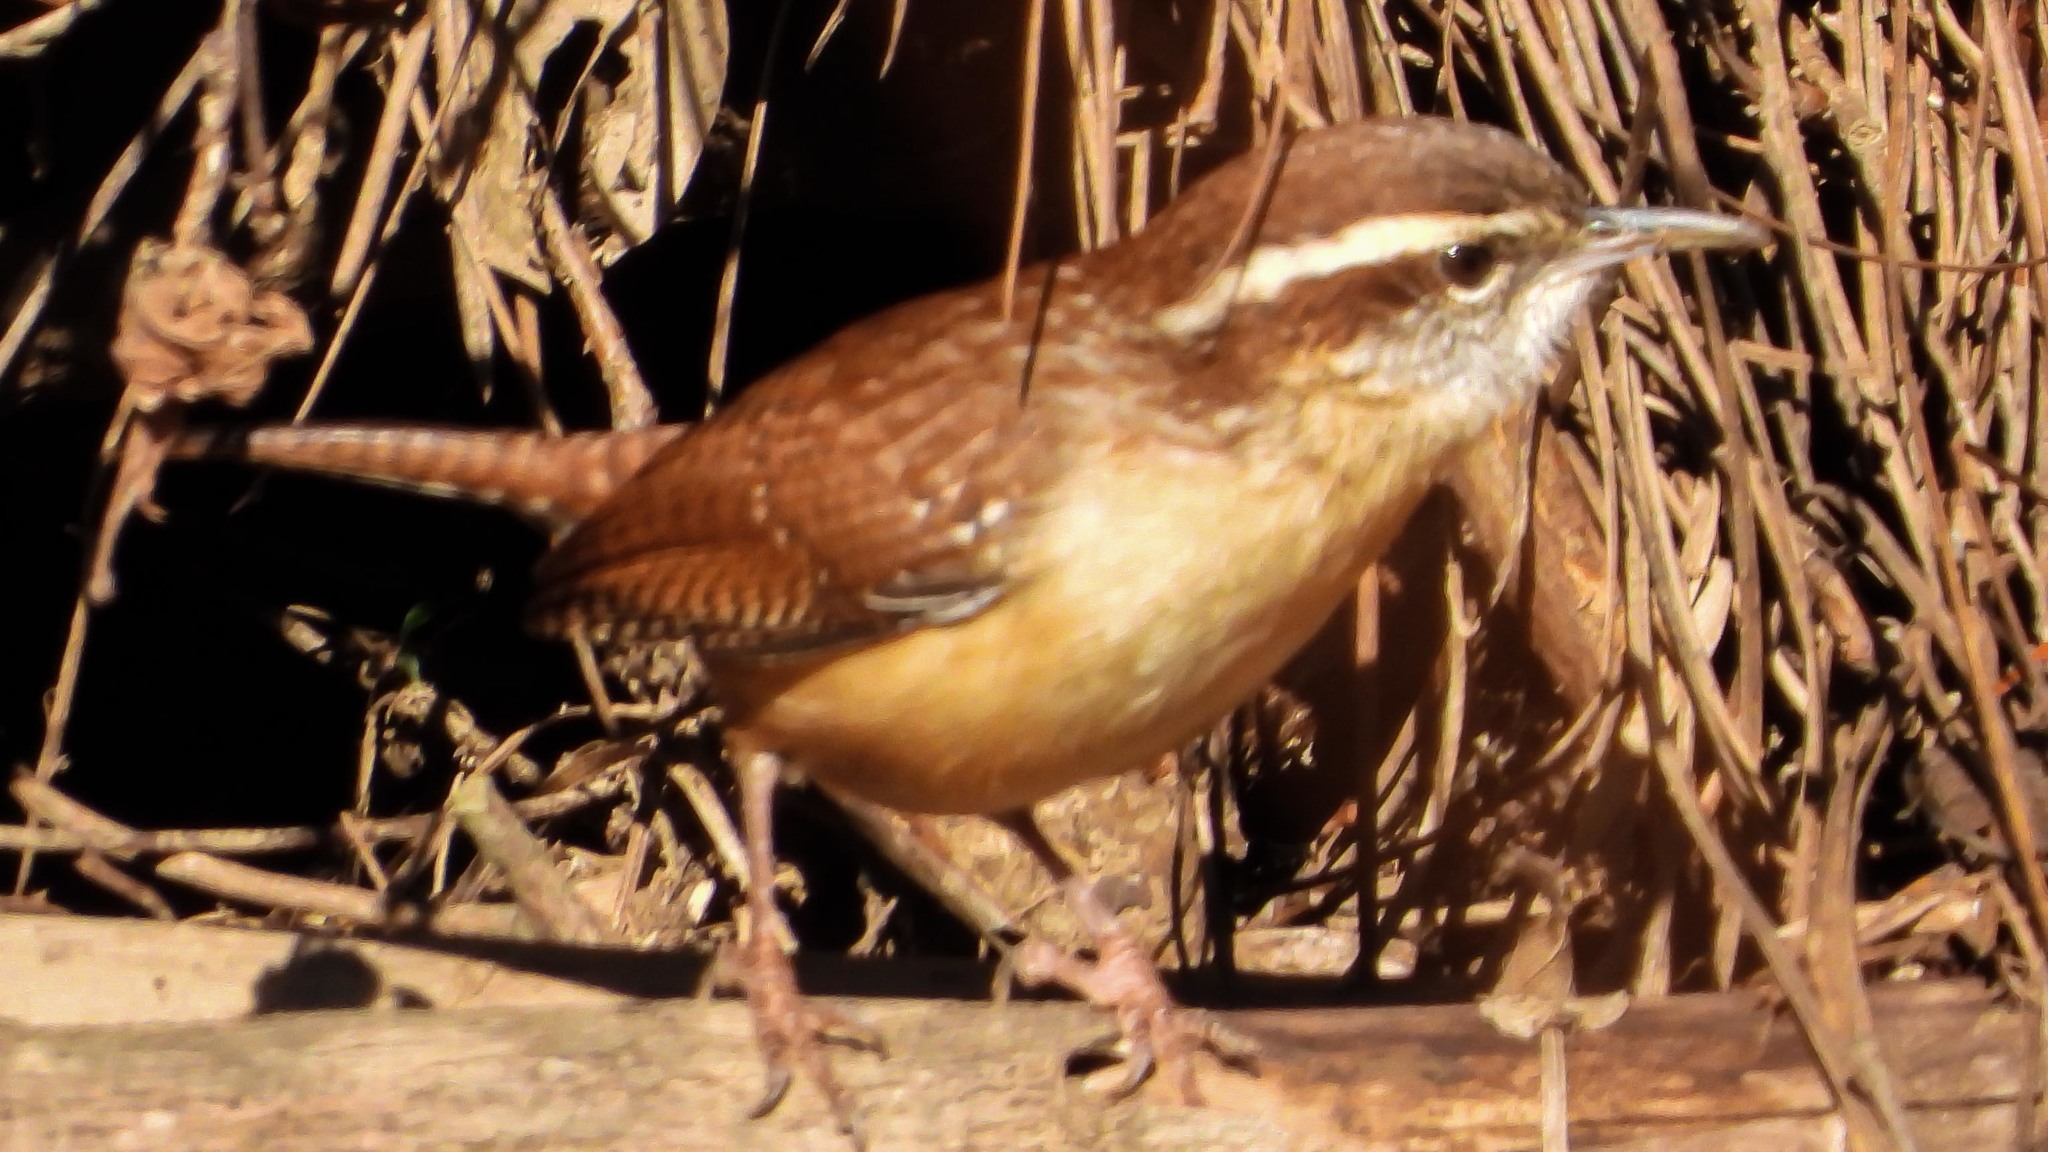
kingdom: Animalia
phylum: Chordata
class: Aves
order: Passeriformes
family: Troglodytidae
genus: Thryothorus
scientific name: Thryothorus ludovicianus
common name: Carolina wren
